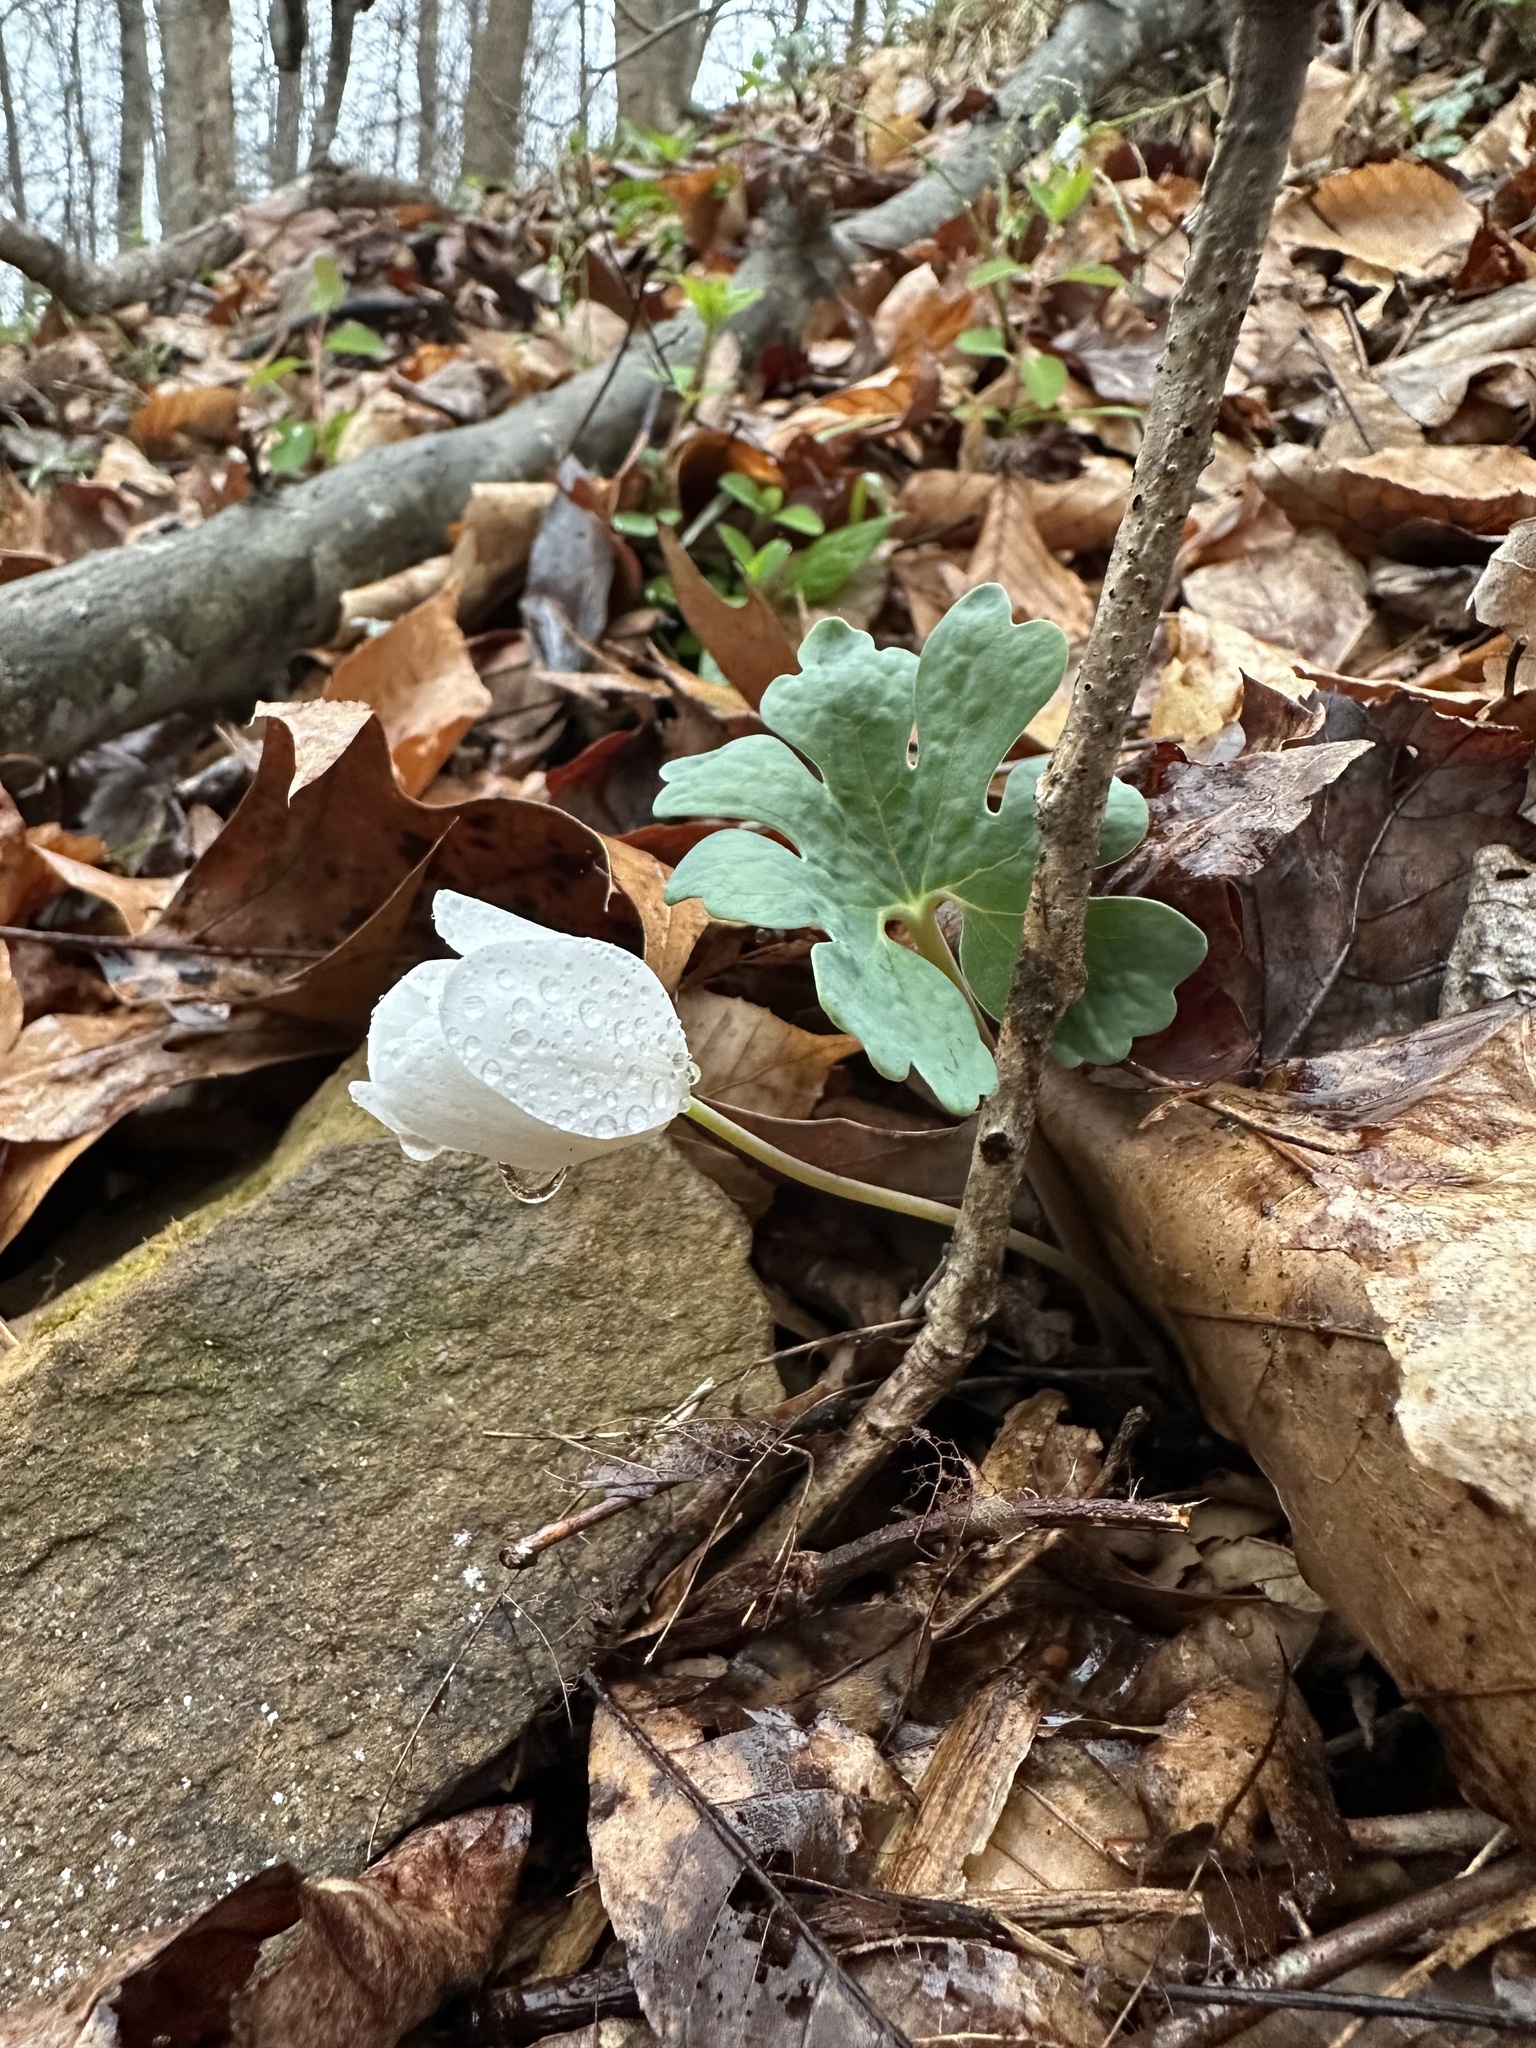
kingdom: Plantae
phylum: Tracheophyta
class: Magnoliopsida
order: Ranunculales
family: Papaveraceae
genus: Sanguinaria
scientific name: Sanguinaria canadensis
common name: Bloodroot
